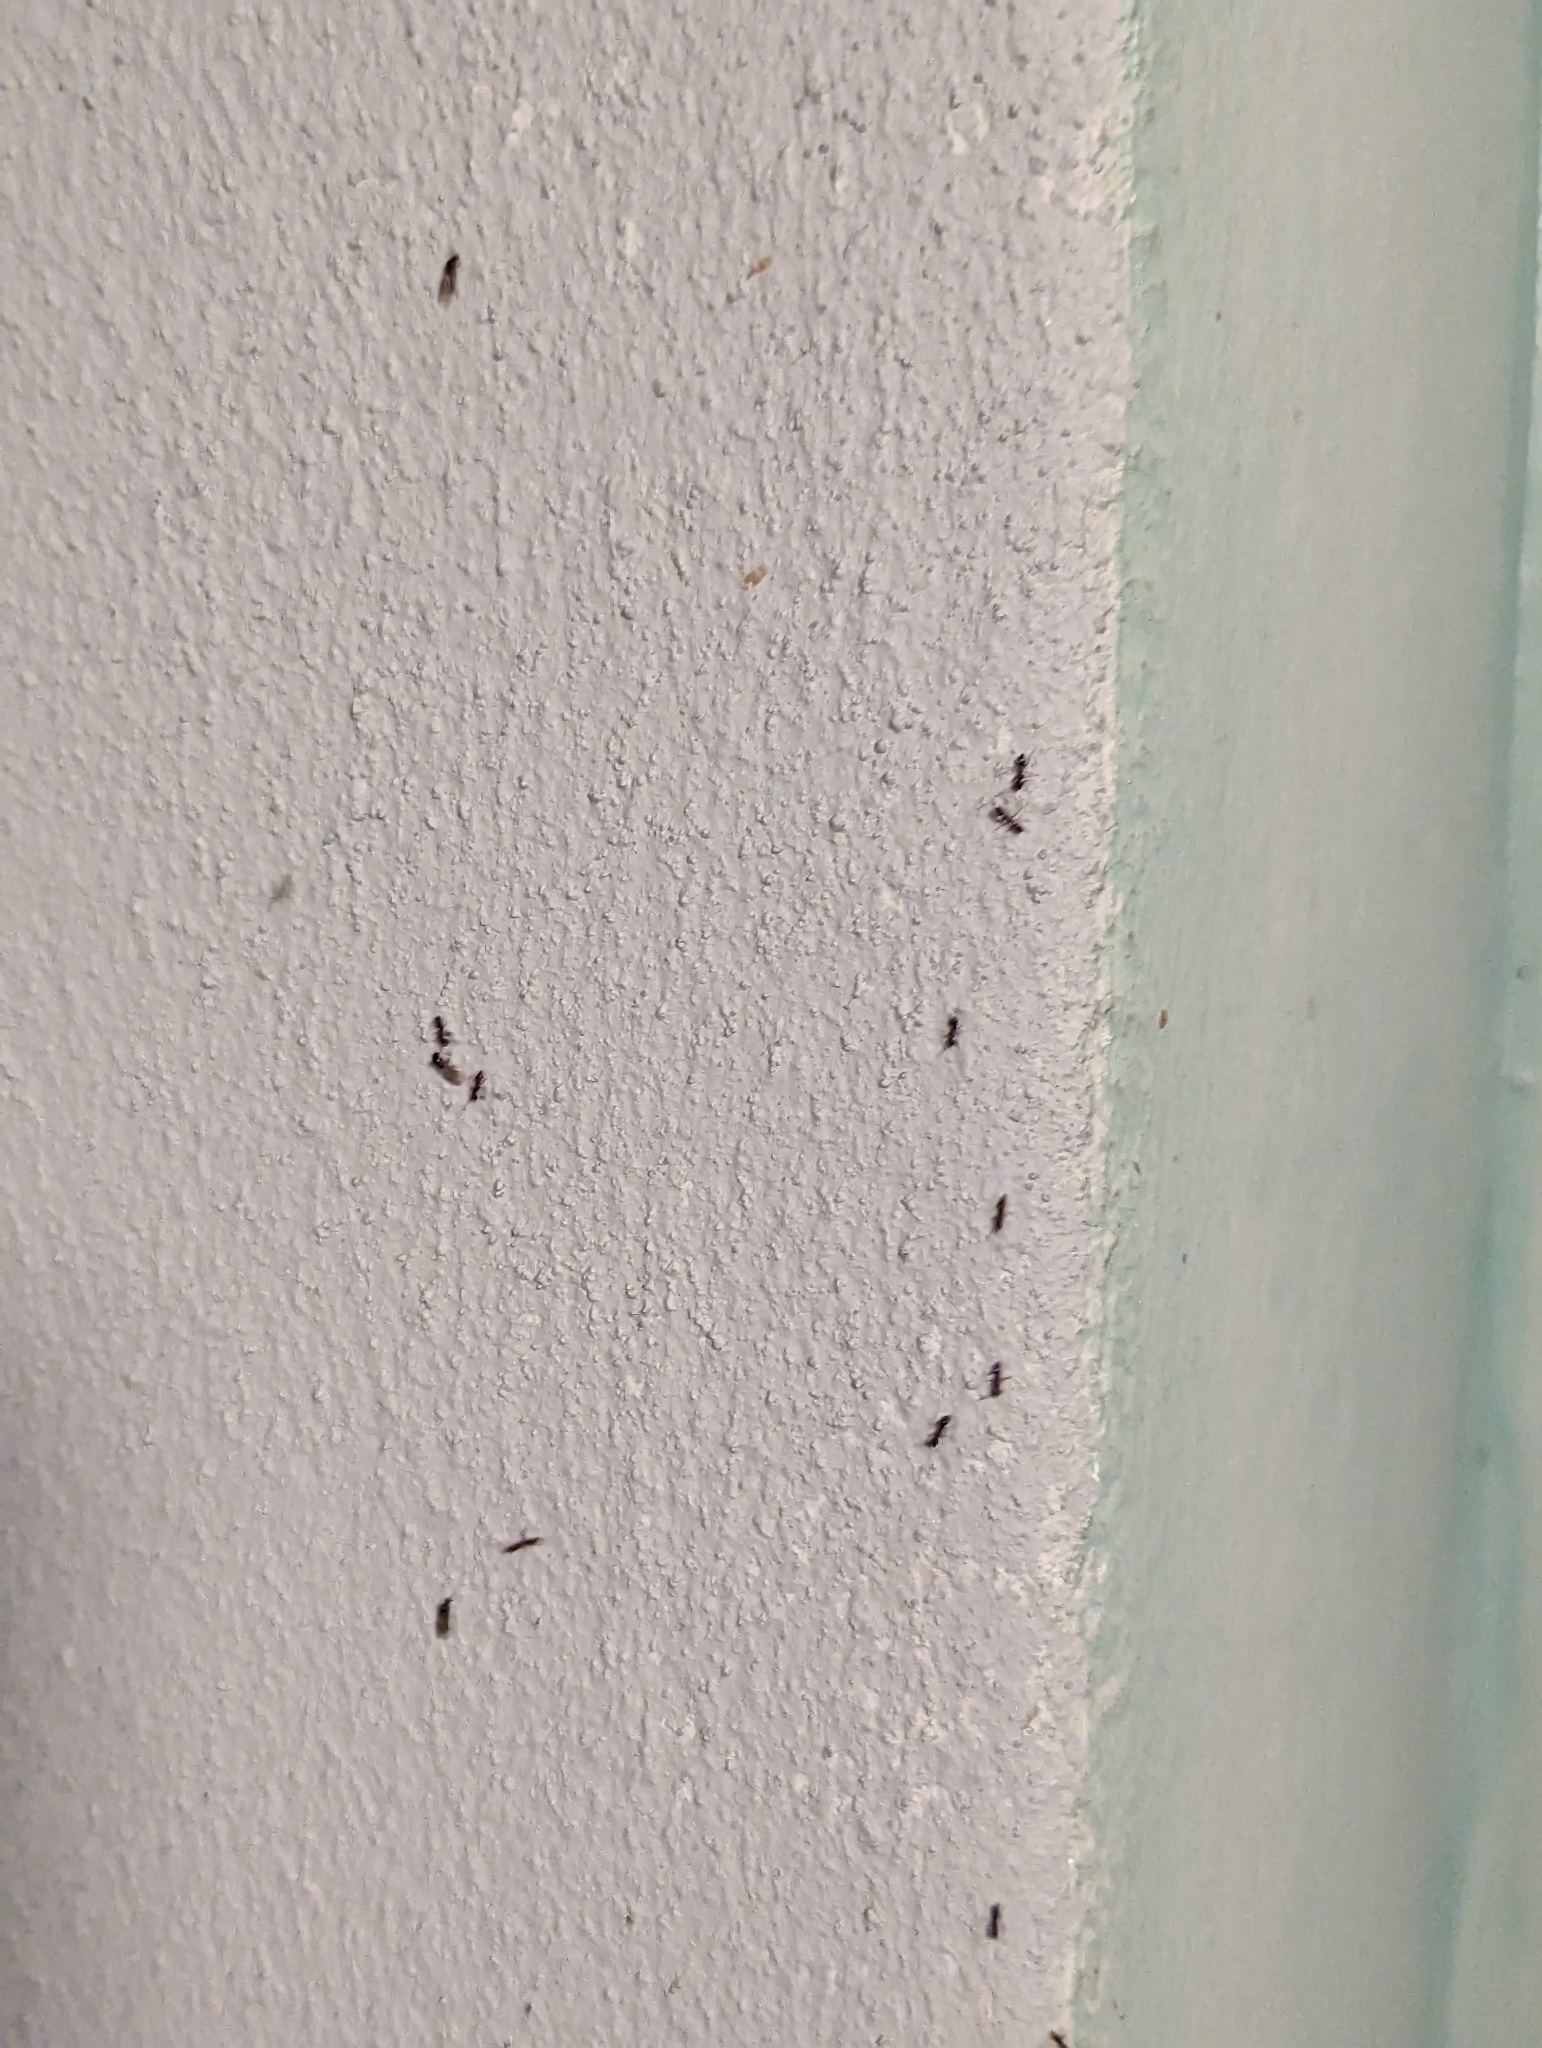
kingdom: Animalia
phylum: Arthropoda
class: Insecta
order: Hymenoptera
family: Formicidae
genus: Linepithema
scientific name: Linepithema humile
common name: Argentine ant
